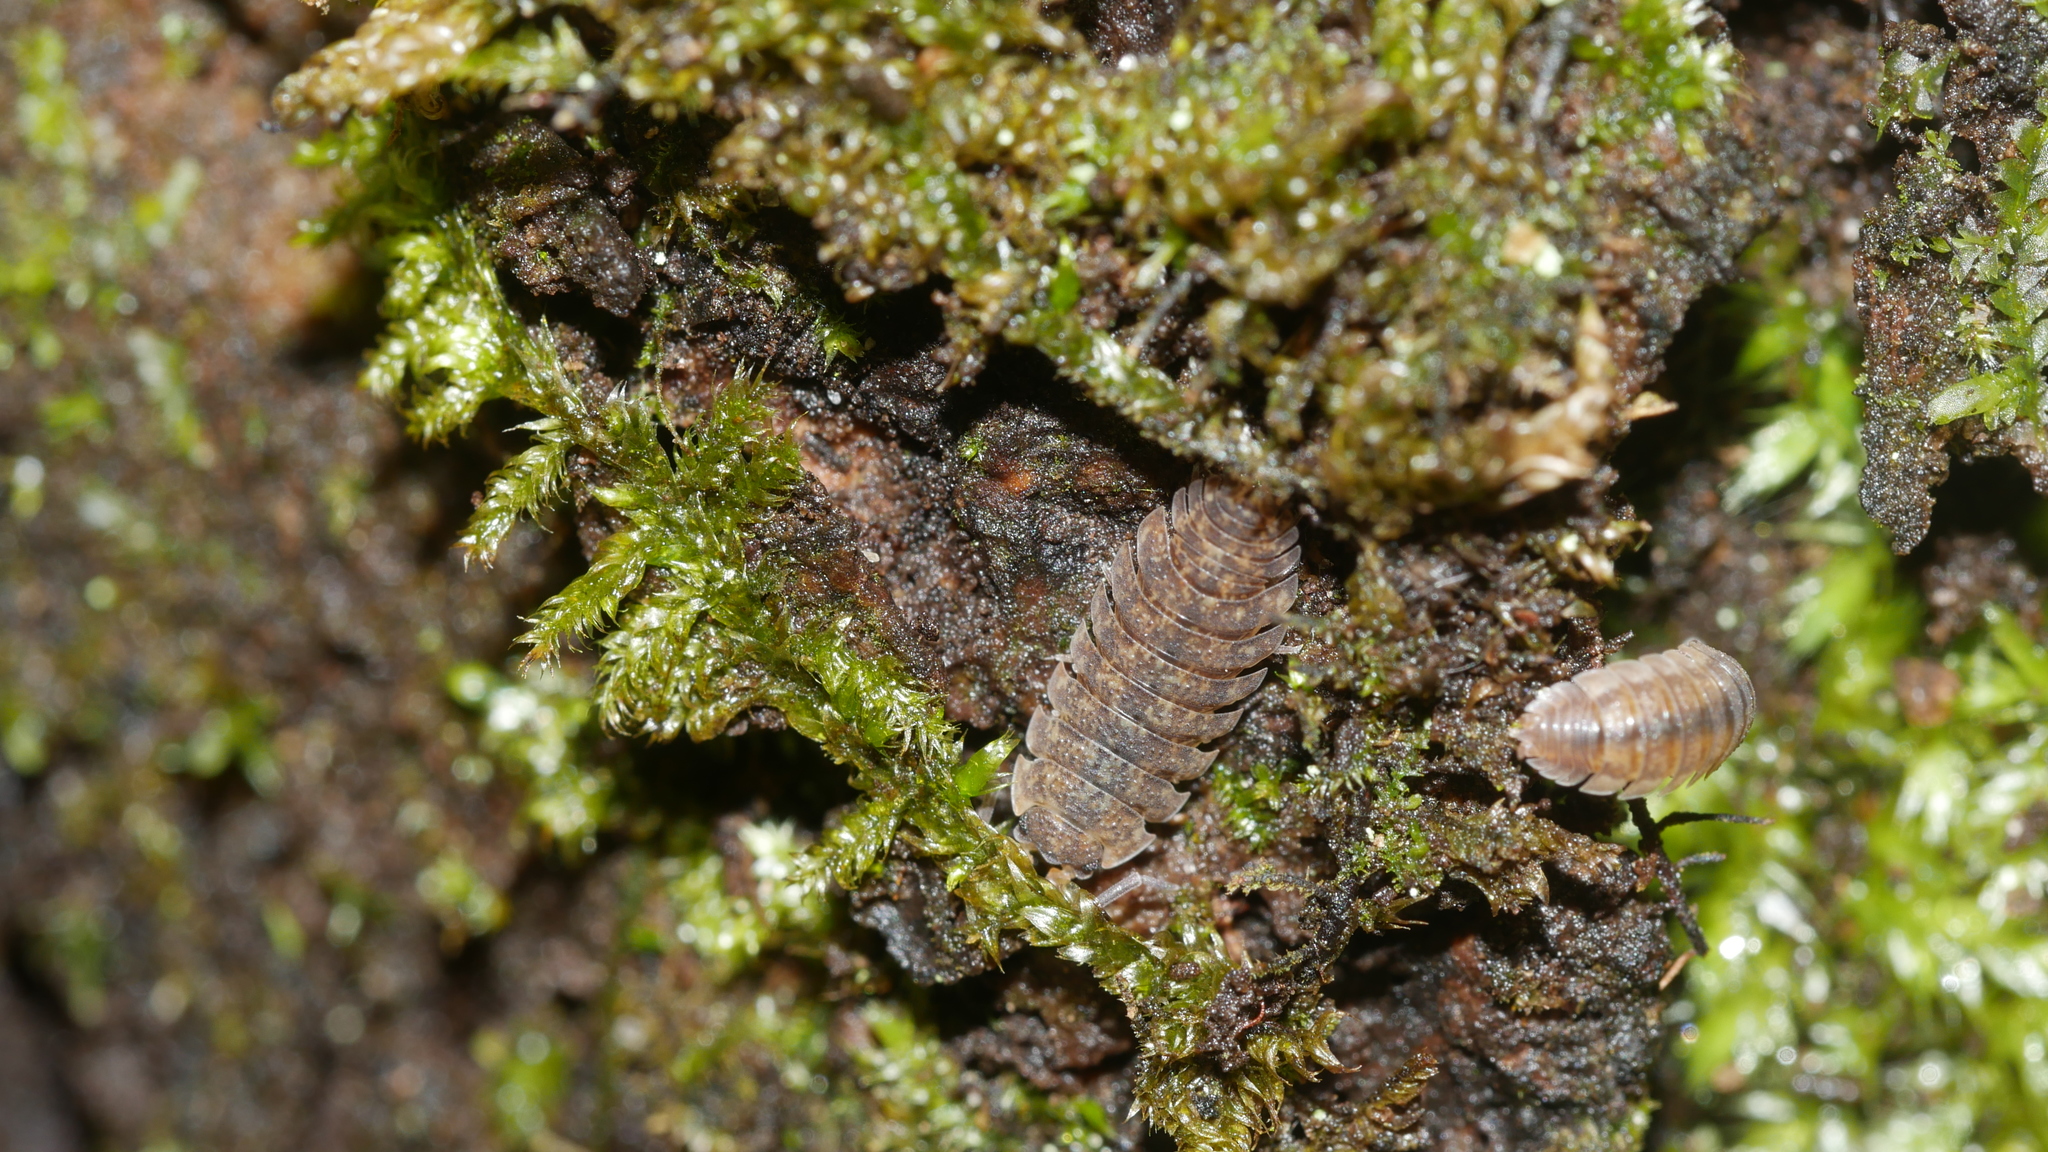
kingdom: Animalia
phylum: Arthropoda
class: Malacostraca
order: Isopoda
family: Porcellionidae
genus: Porcellio
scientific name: Porcellio scaber
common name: Common rough woodlouse
